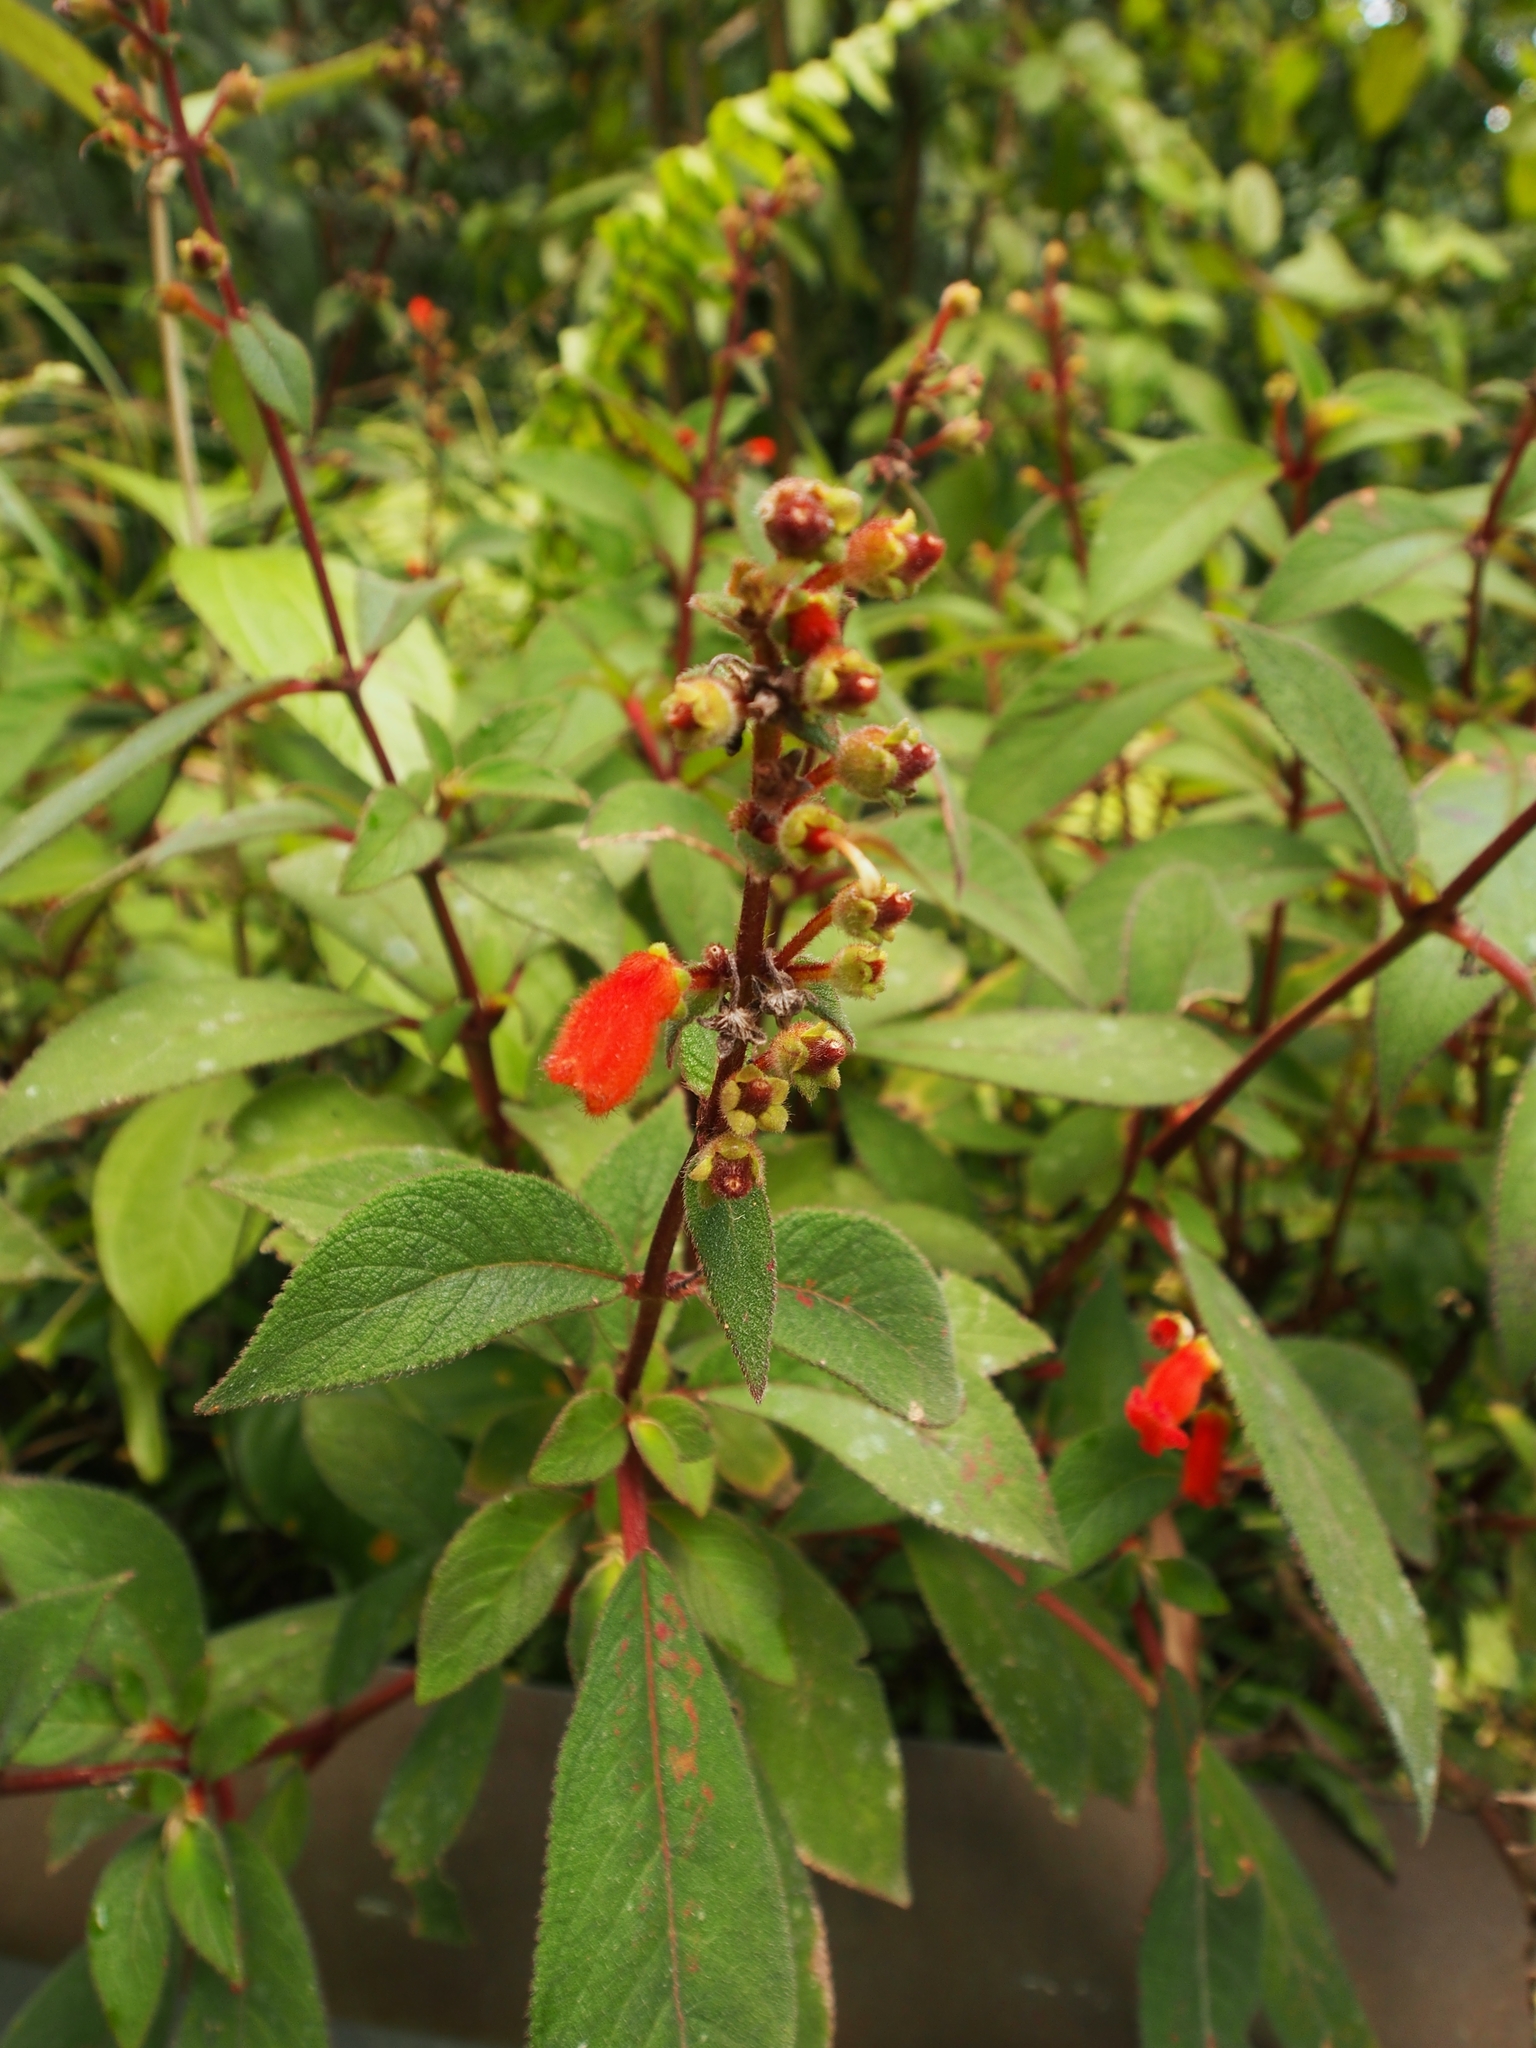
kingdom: Plantae
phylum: Tracheophyta
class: Magnoliopsida
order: Lamiales
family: Gesneriaceae
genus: Kohleria
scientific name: Kohleria spicata
